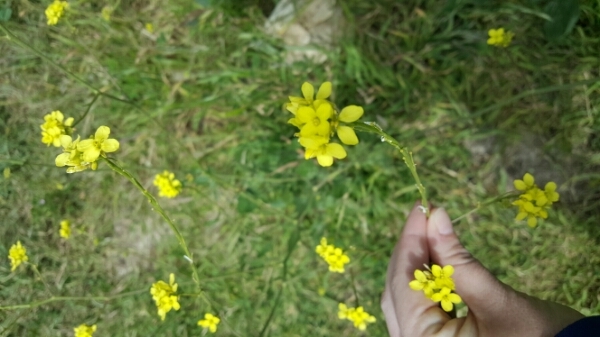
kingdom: Plantae
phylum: Tracheophyta
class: Magnoliopsida
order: Brassicales
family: Brassicaceae
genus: Brassica
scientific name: Brassica nigra
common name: Black mustard
